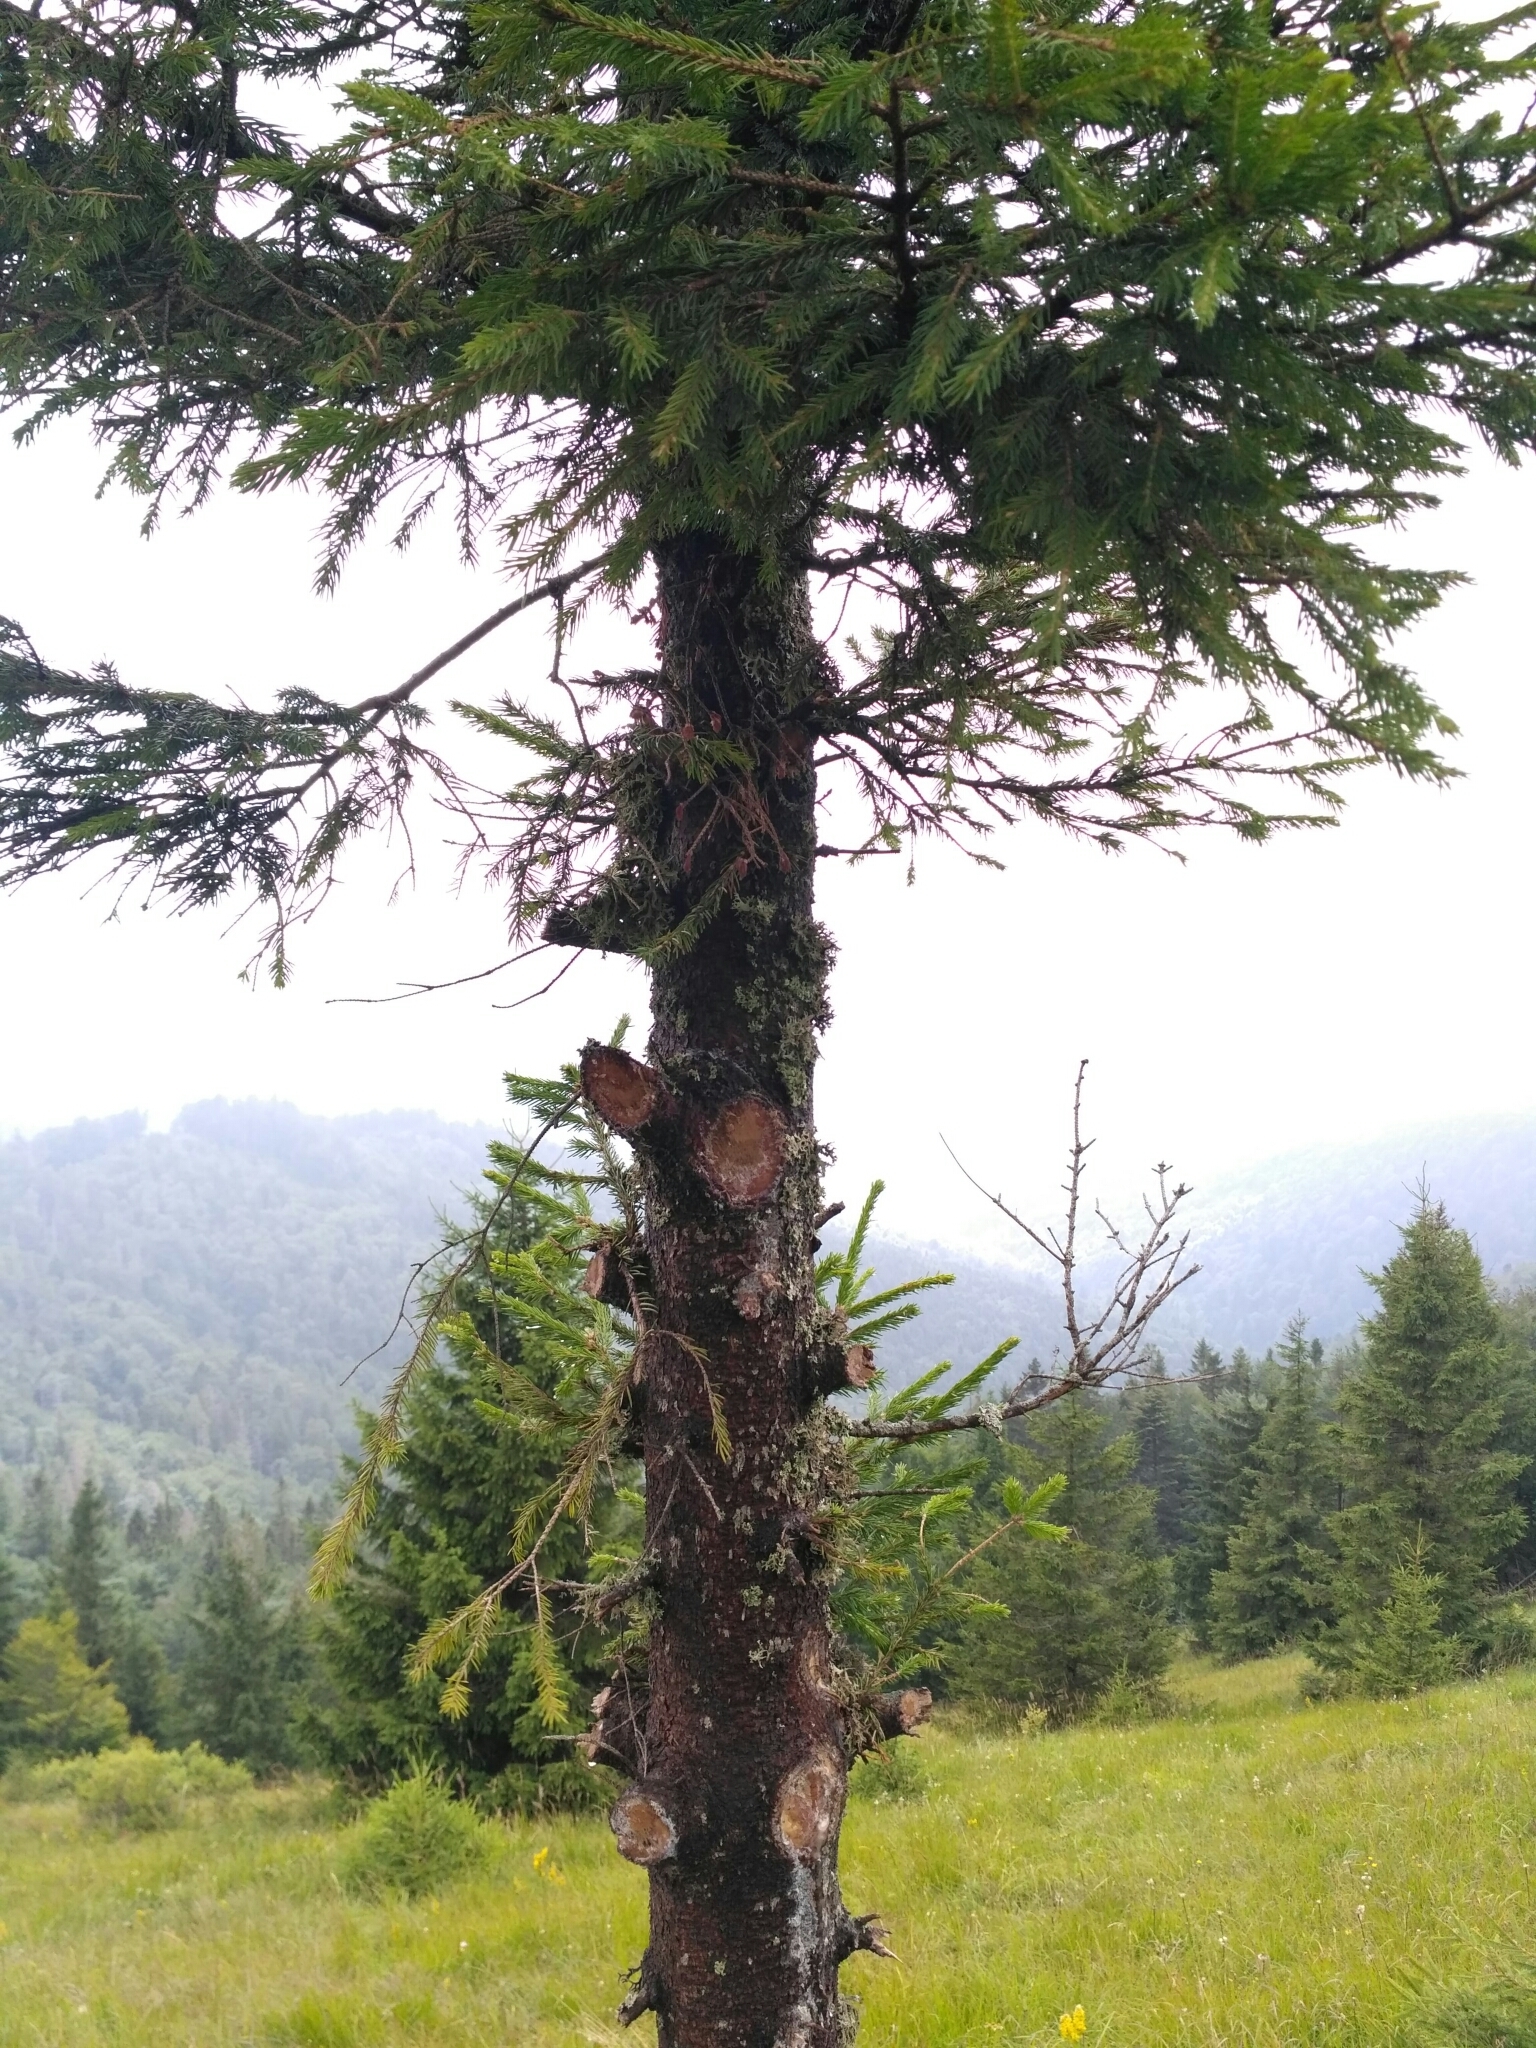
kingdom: Plantae
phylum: Tracheophyta
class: Pinopsida
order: Pinales
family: Pinaceae
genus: Picea
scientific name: Picea abies
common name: Norway spruce
